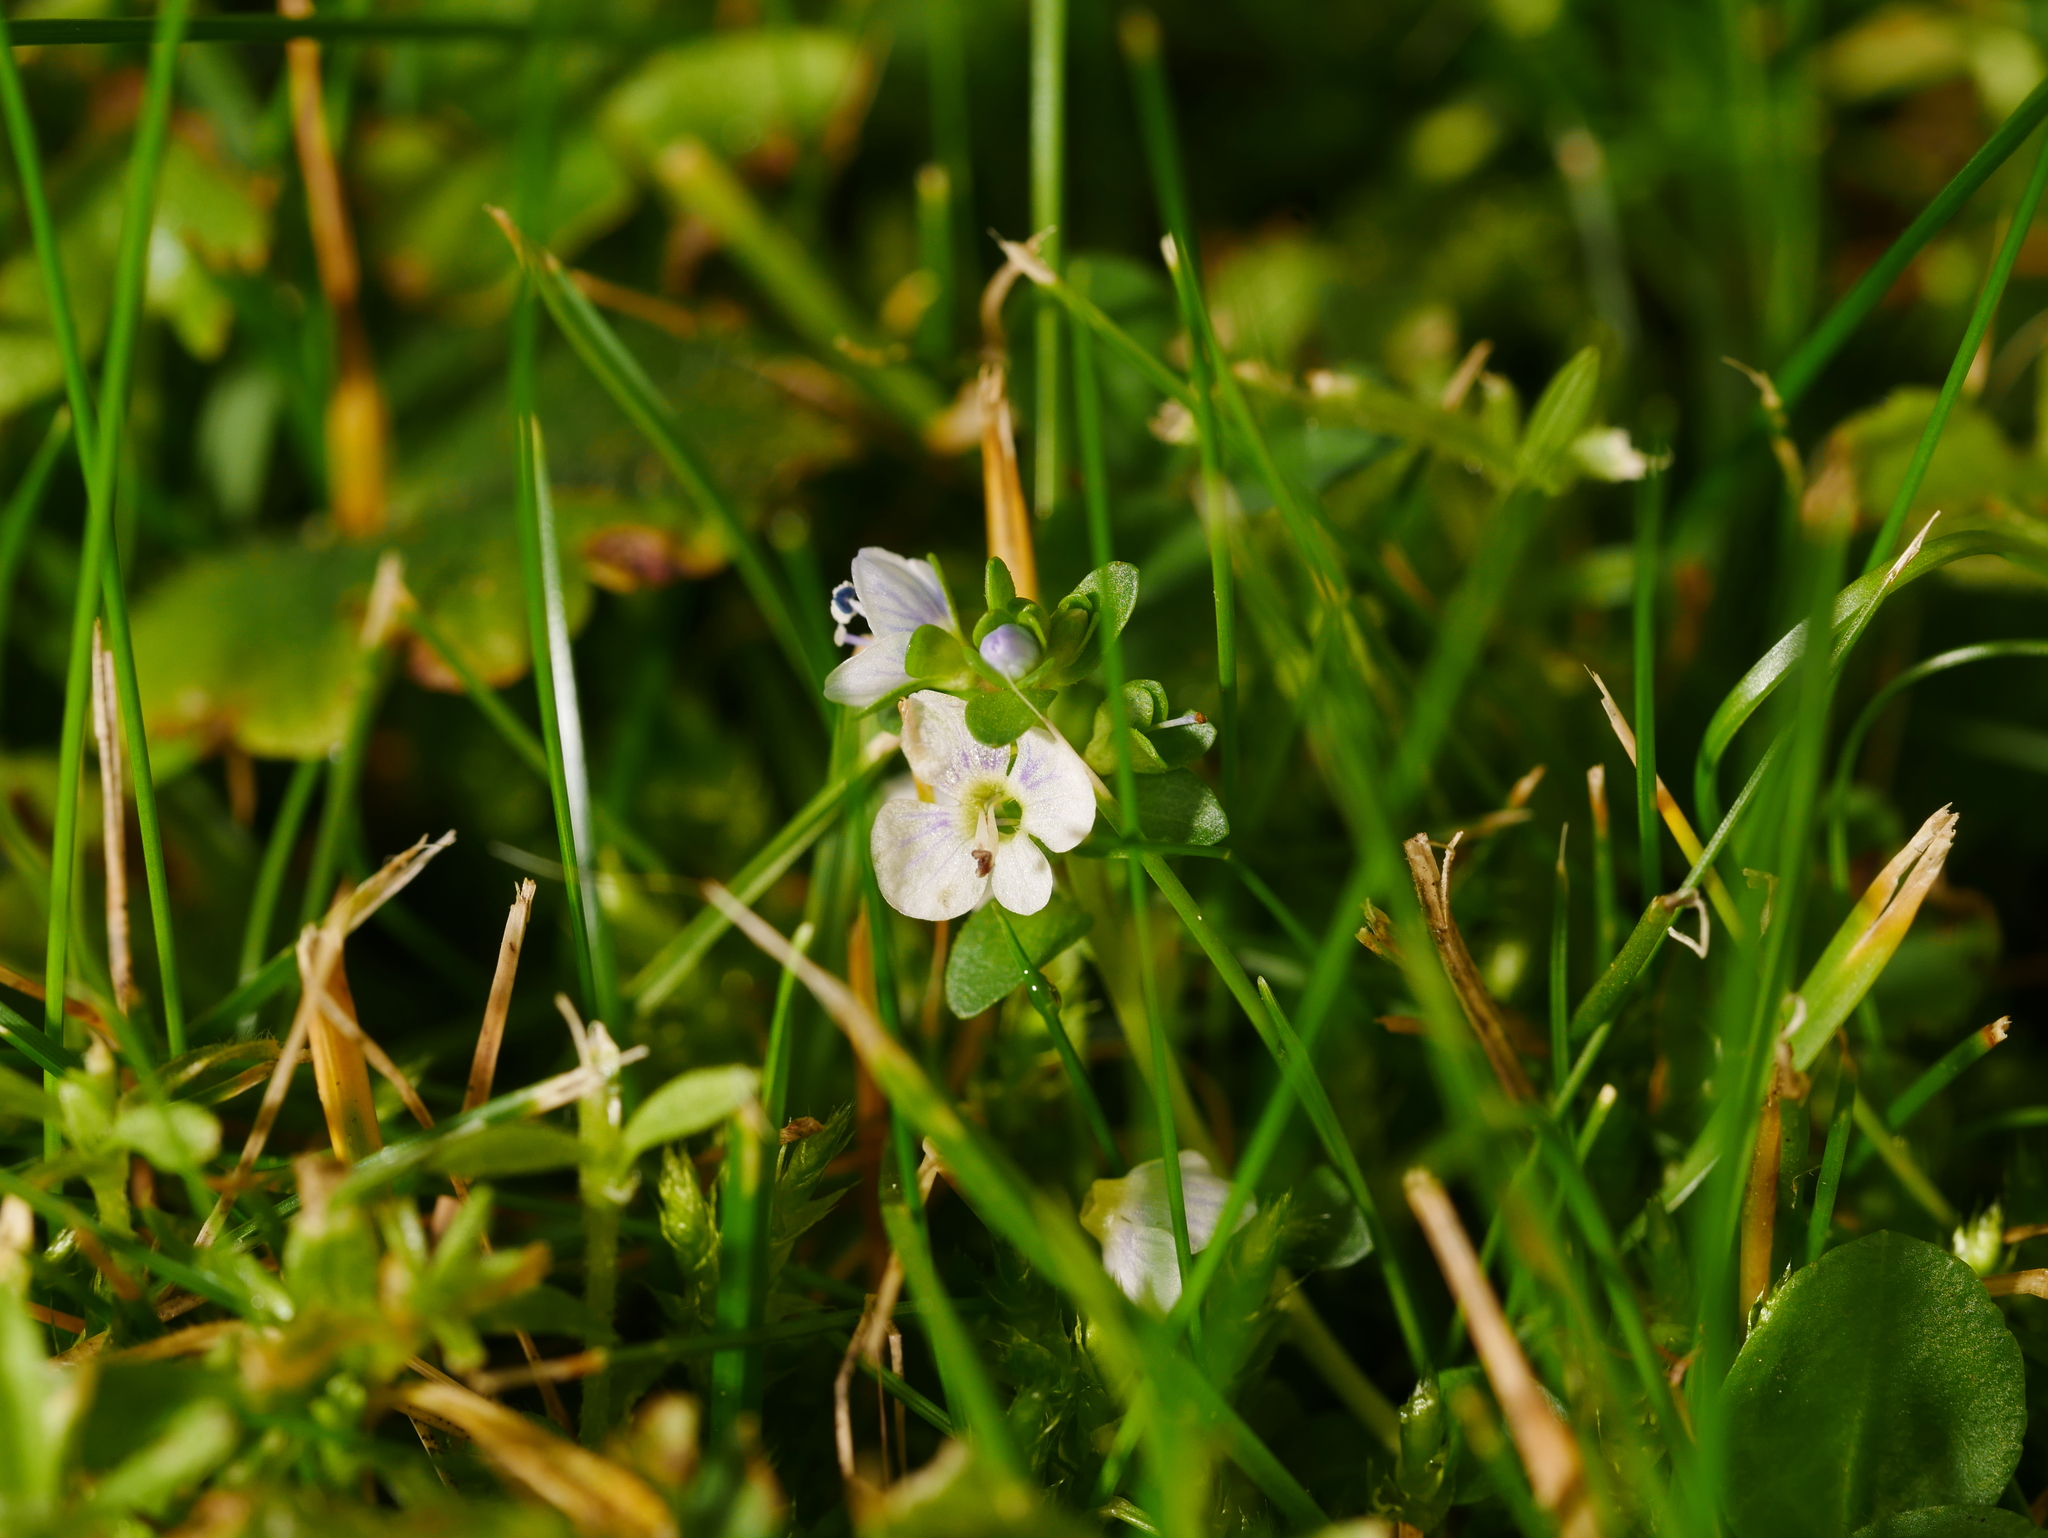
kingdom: Plantae
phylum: Tracheophyta
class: Magnoliopsida
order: Lamiales
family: Plantaginaceae
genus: Veronica
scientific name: Veronica serpyllifolia
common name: Thyme-leaved speedwell
